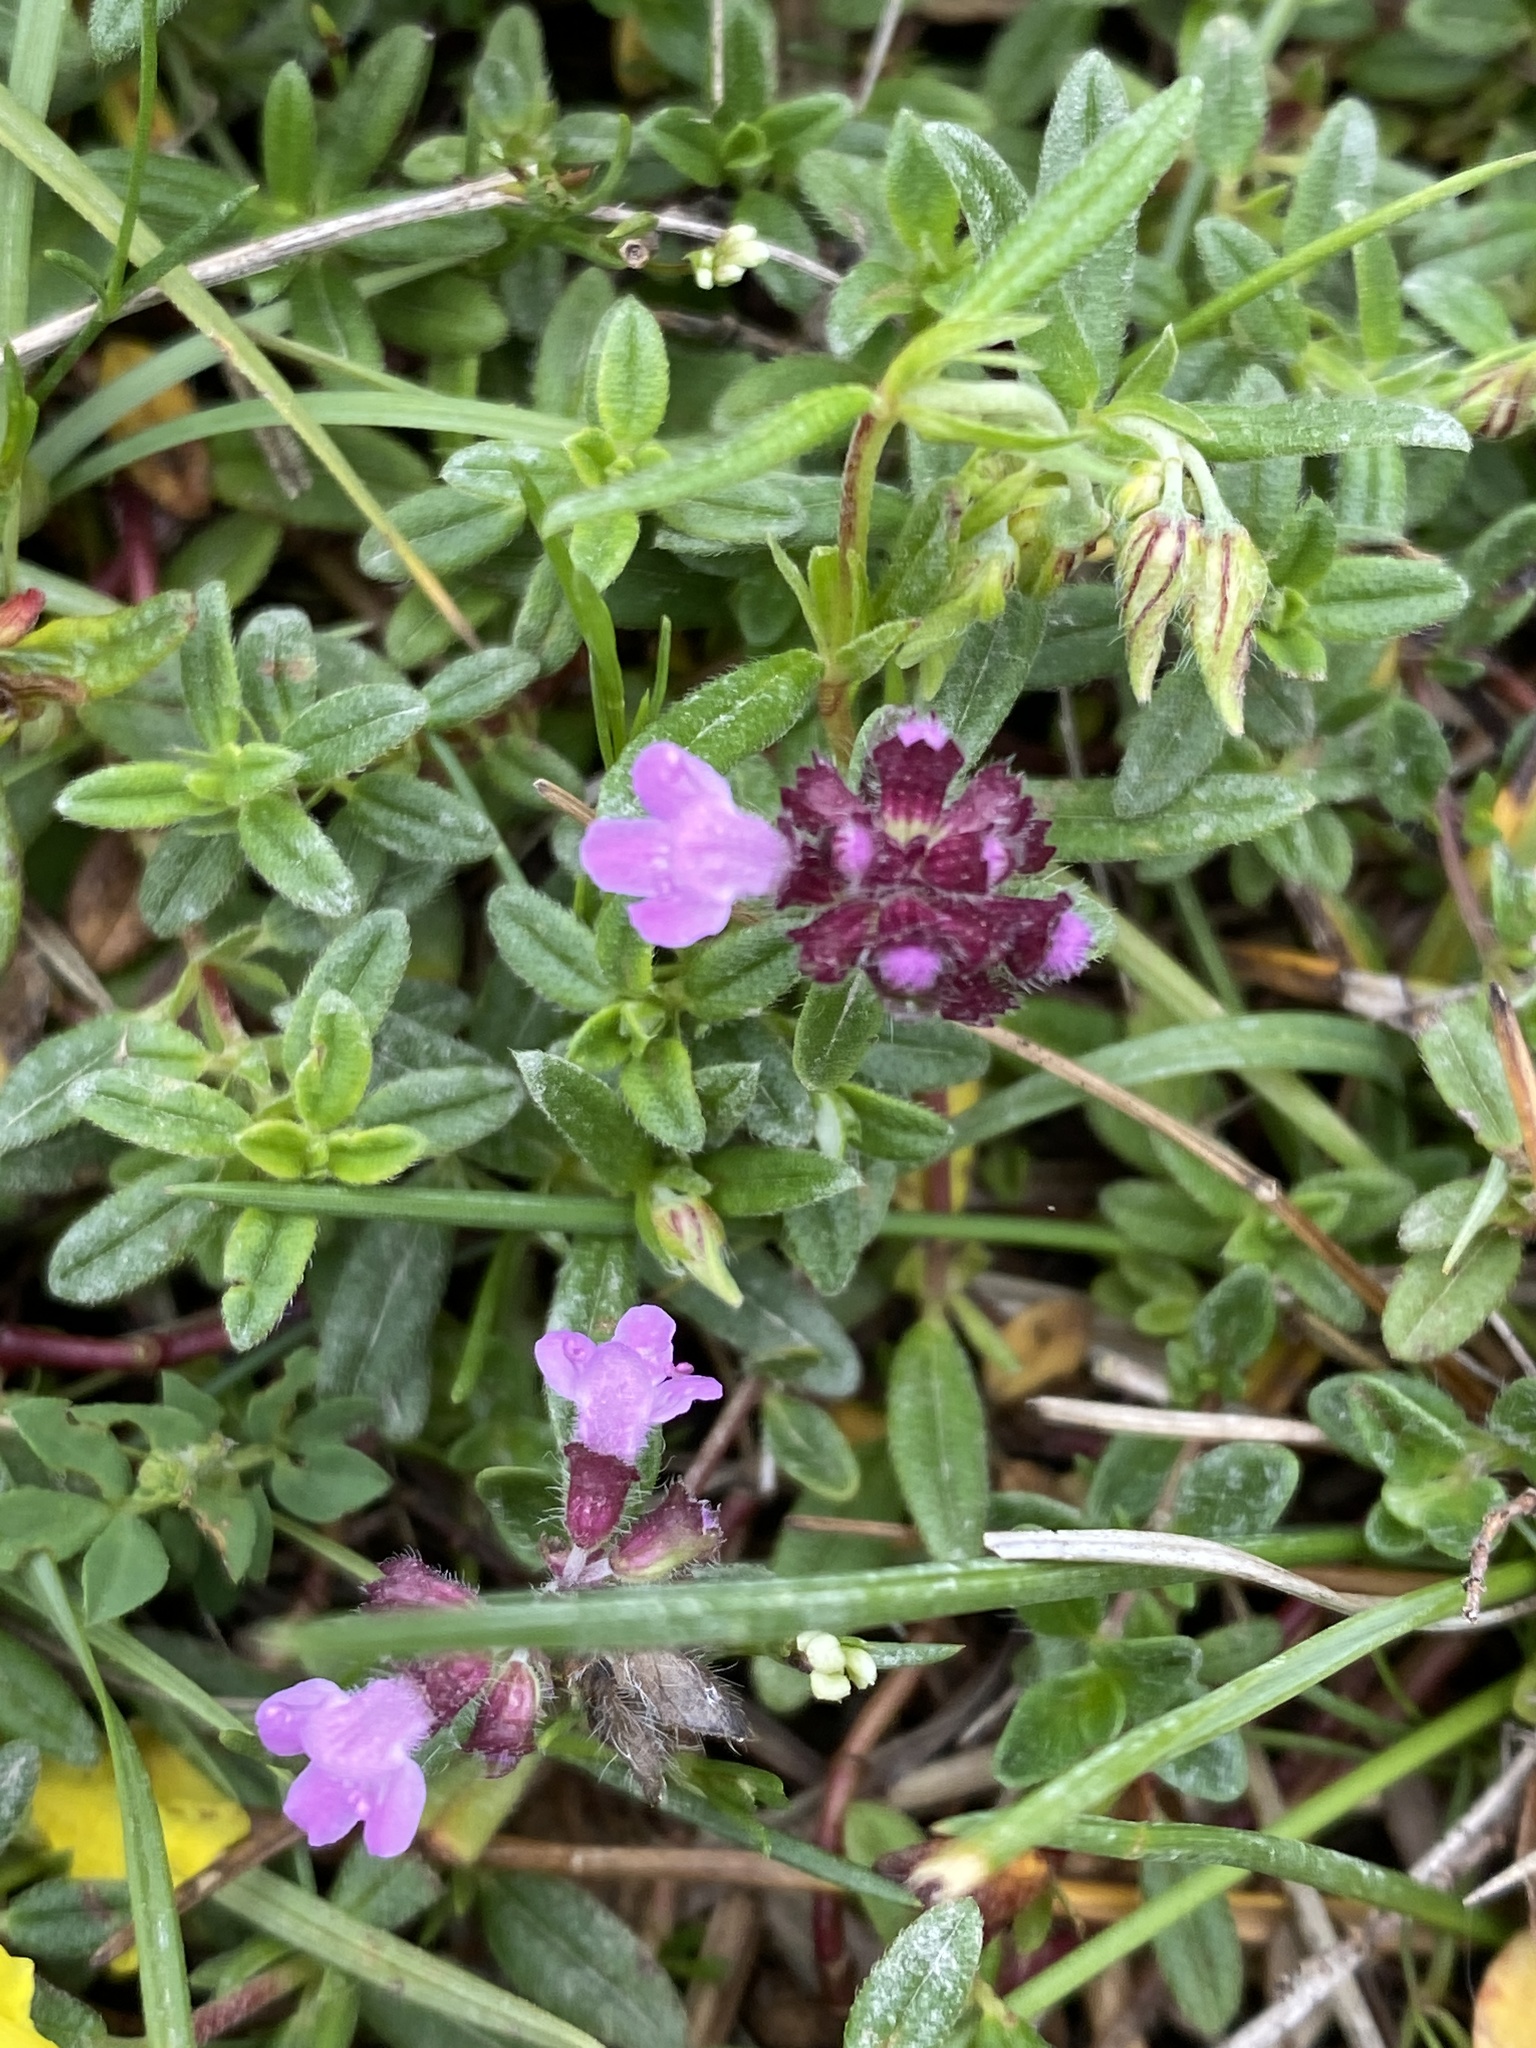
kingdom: Plantae
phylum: Tracheophyta
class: Magnoliopsida
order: Lamiales
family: Lamiaceae
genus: Thymus
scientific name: Thymus praecox
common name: Wild thyme
